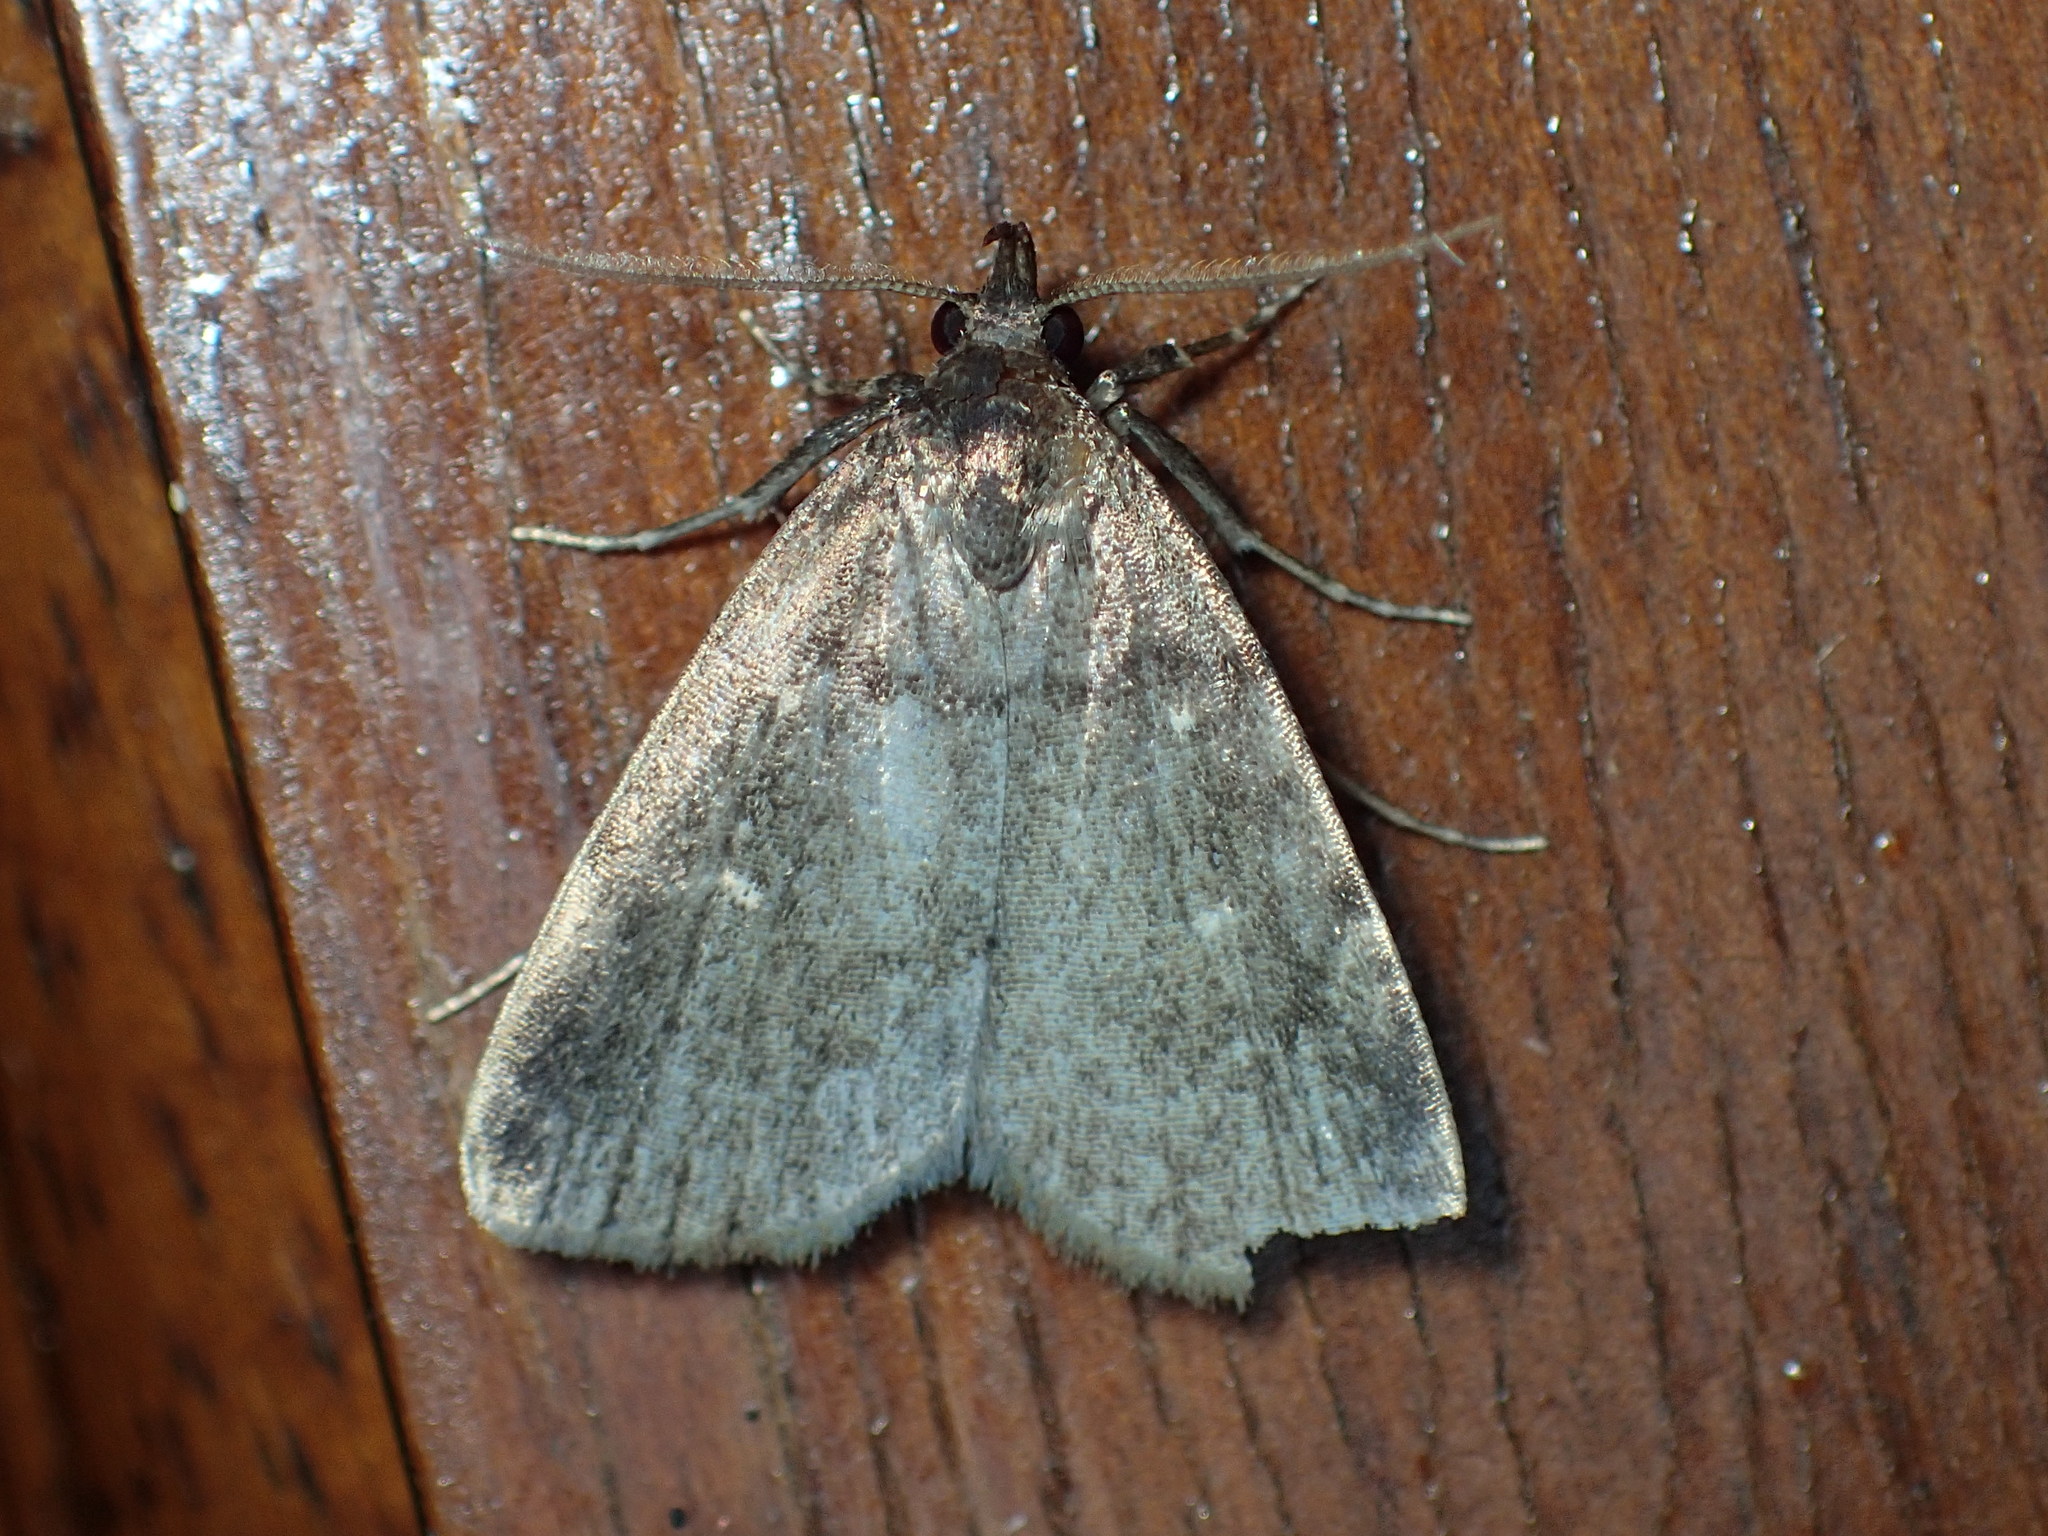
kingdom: Animalia
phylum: Arthropoda
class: Insecta
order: Lepidoptera
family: Erebidae
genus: Idia
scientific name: Idia julia
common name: Julia's idia moth
